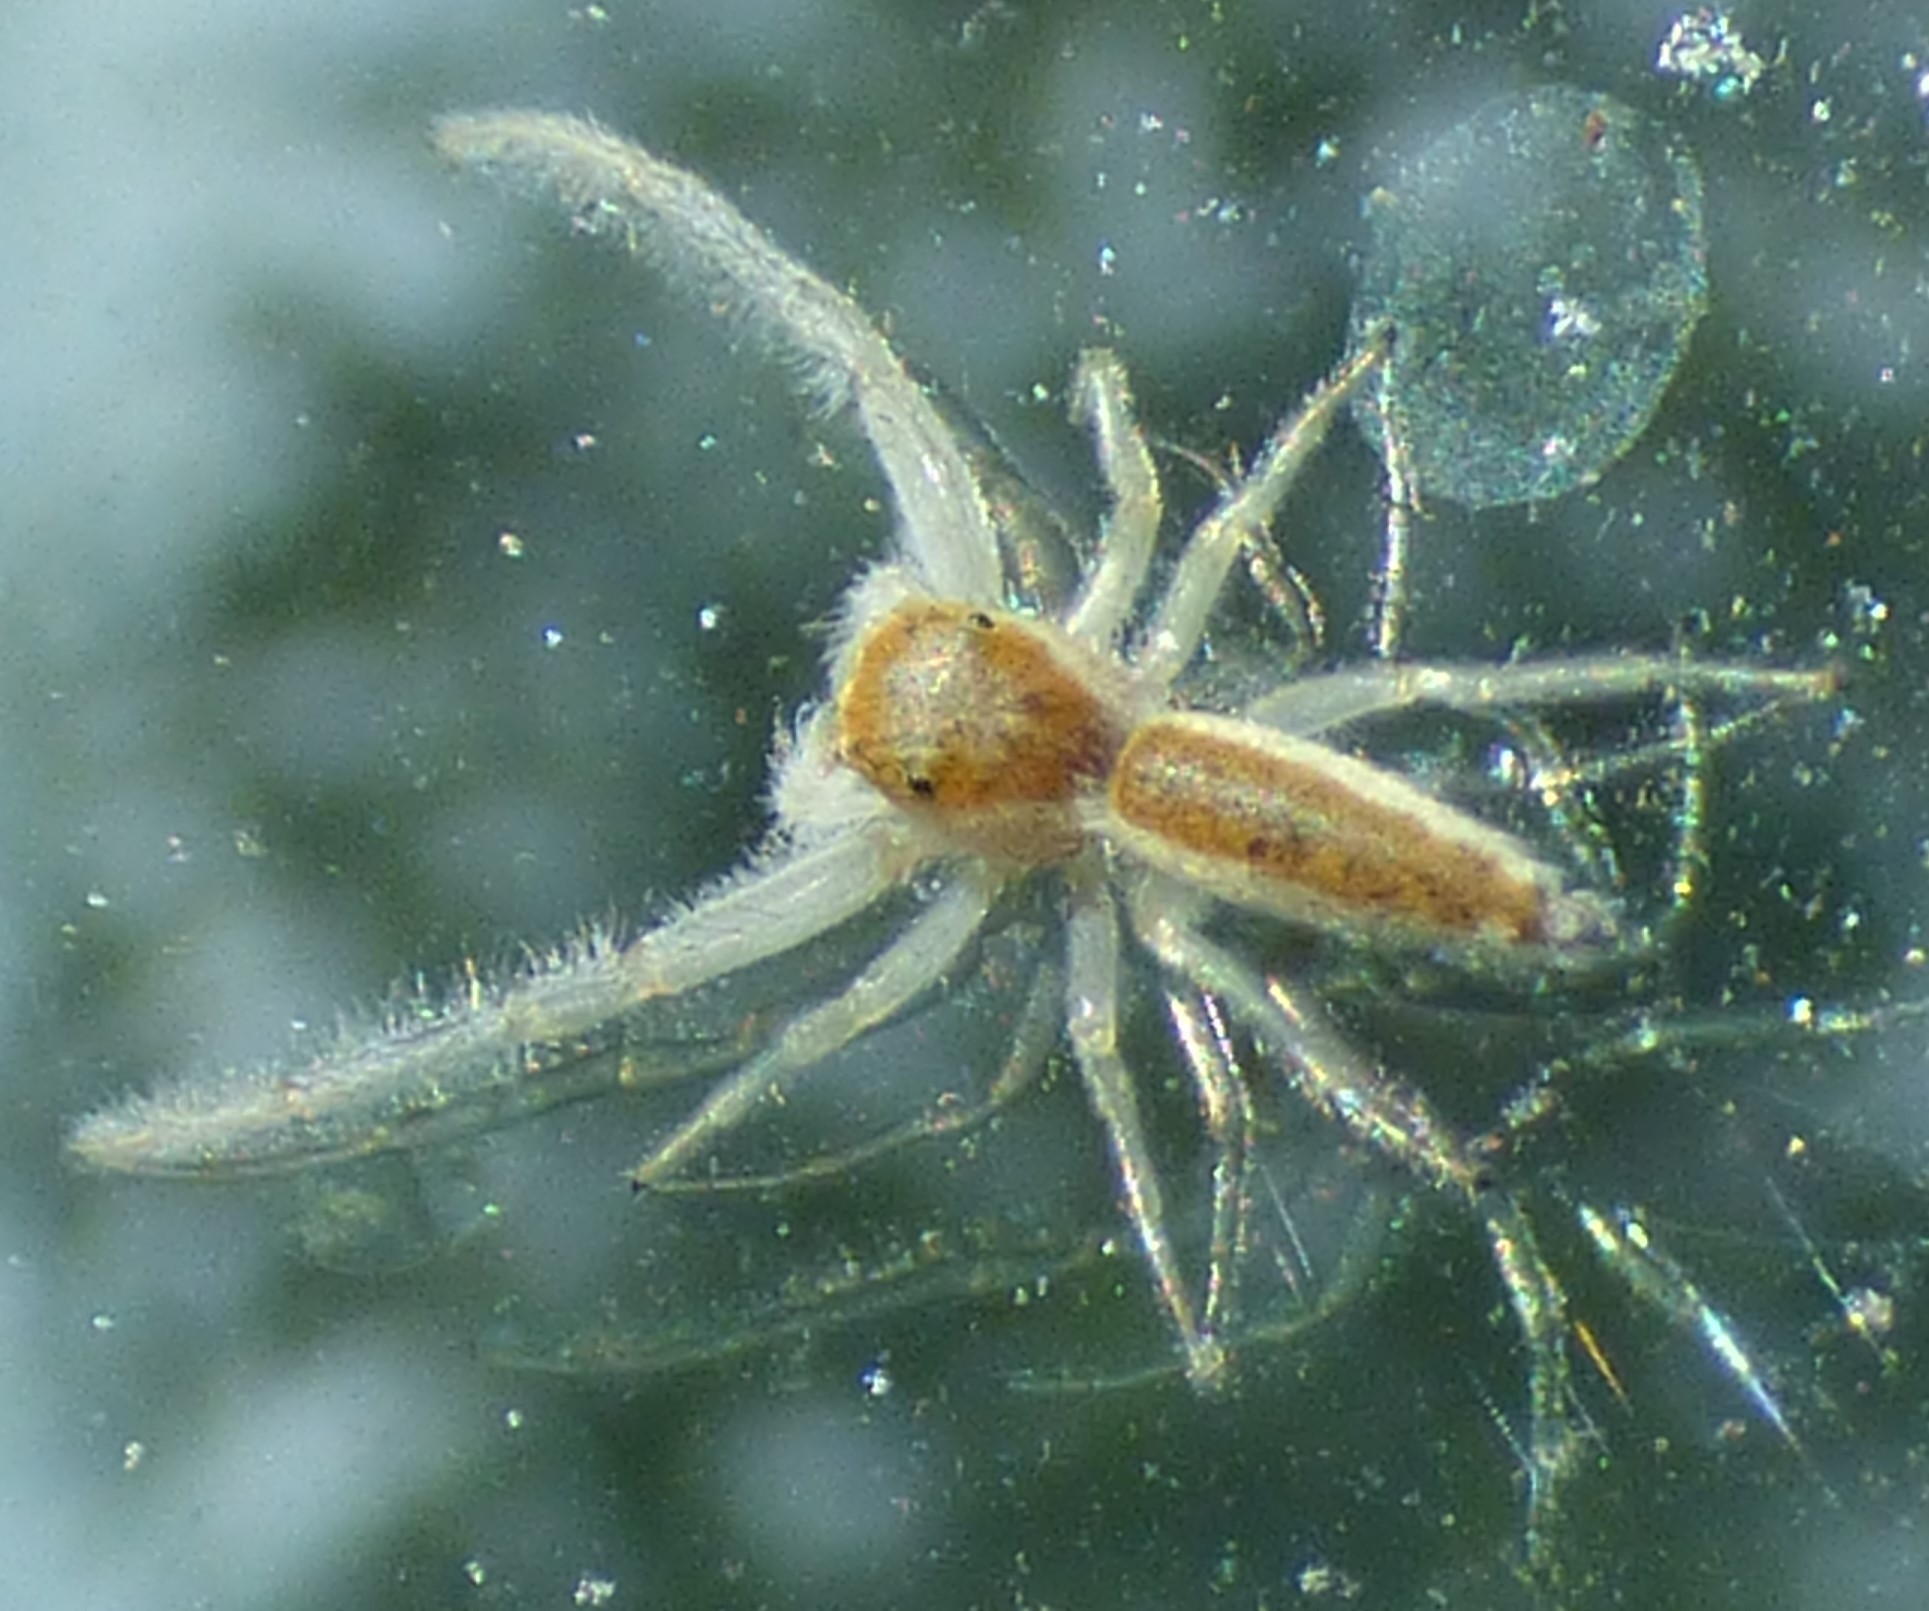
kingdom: Animalia
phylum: Arthropoda
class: Arachnida
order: Araneae
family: Salticidae
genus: Hentzia
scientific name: Hentzia mitrata
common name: White-jawed jumping spider
